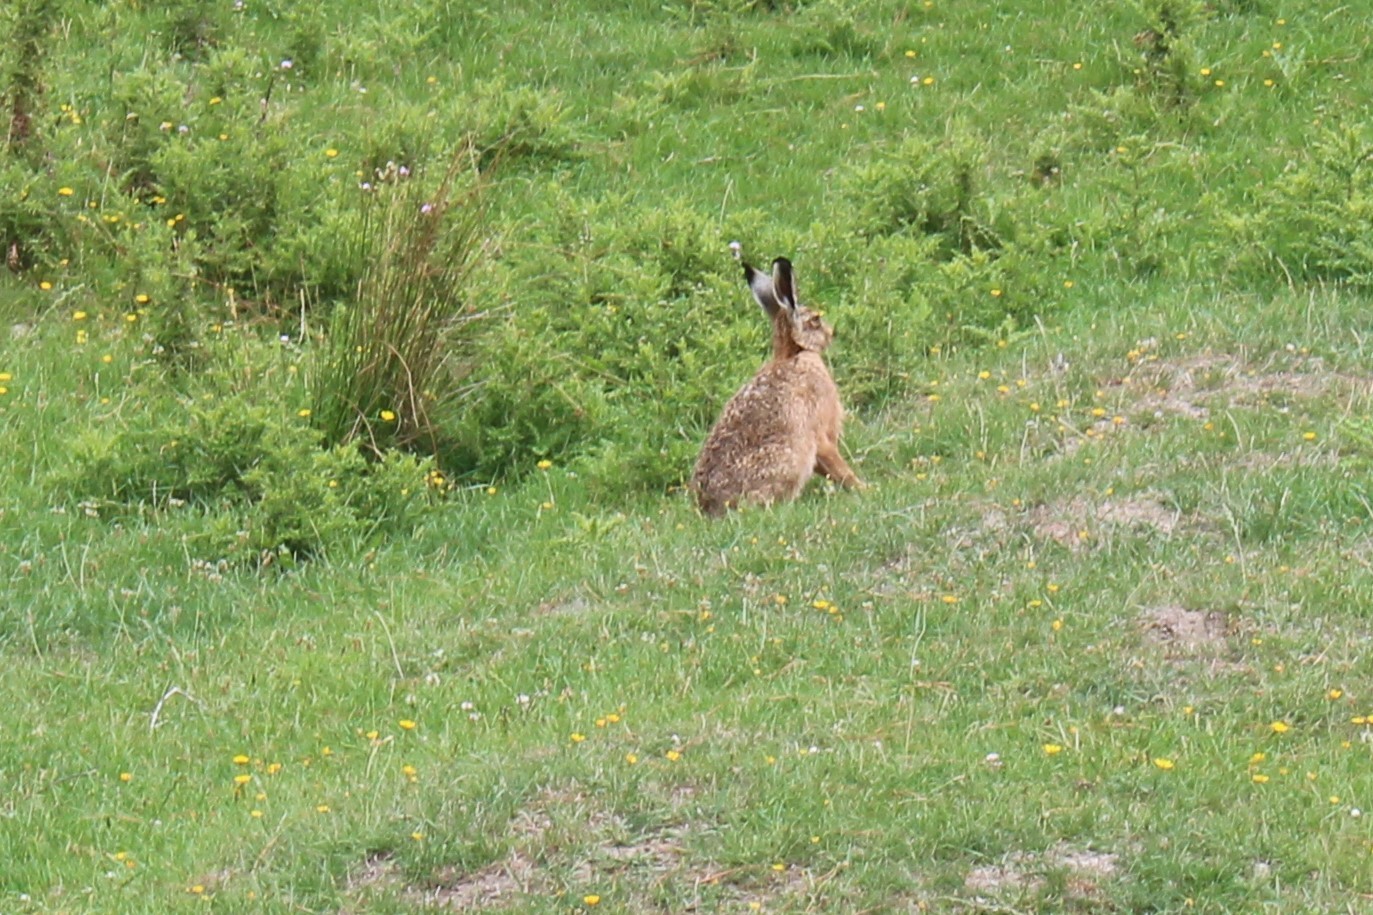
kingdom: Animalia
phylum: Chordata
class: Mammalia
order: Lagomorpha
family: Leporidae
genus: Lepus
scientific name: Lepus europaeus
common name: European hare
